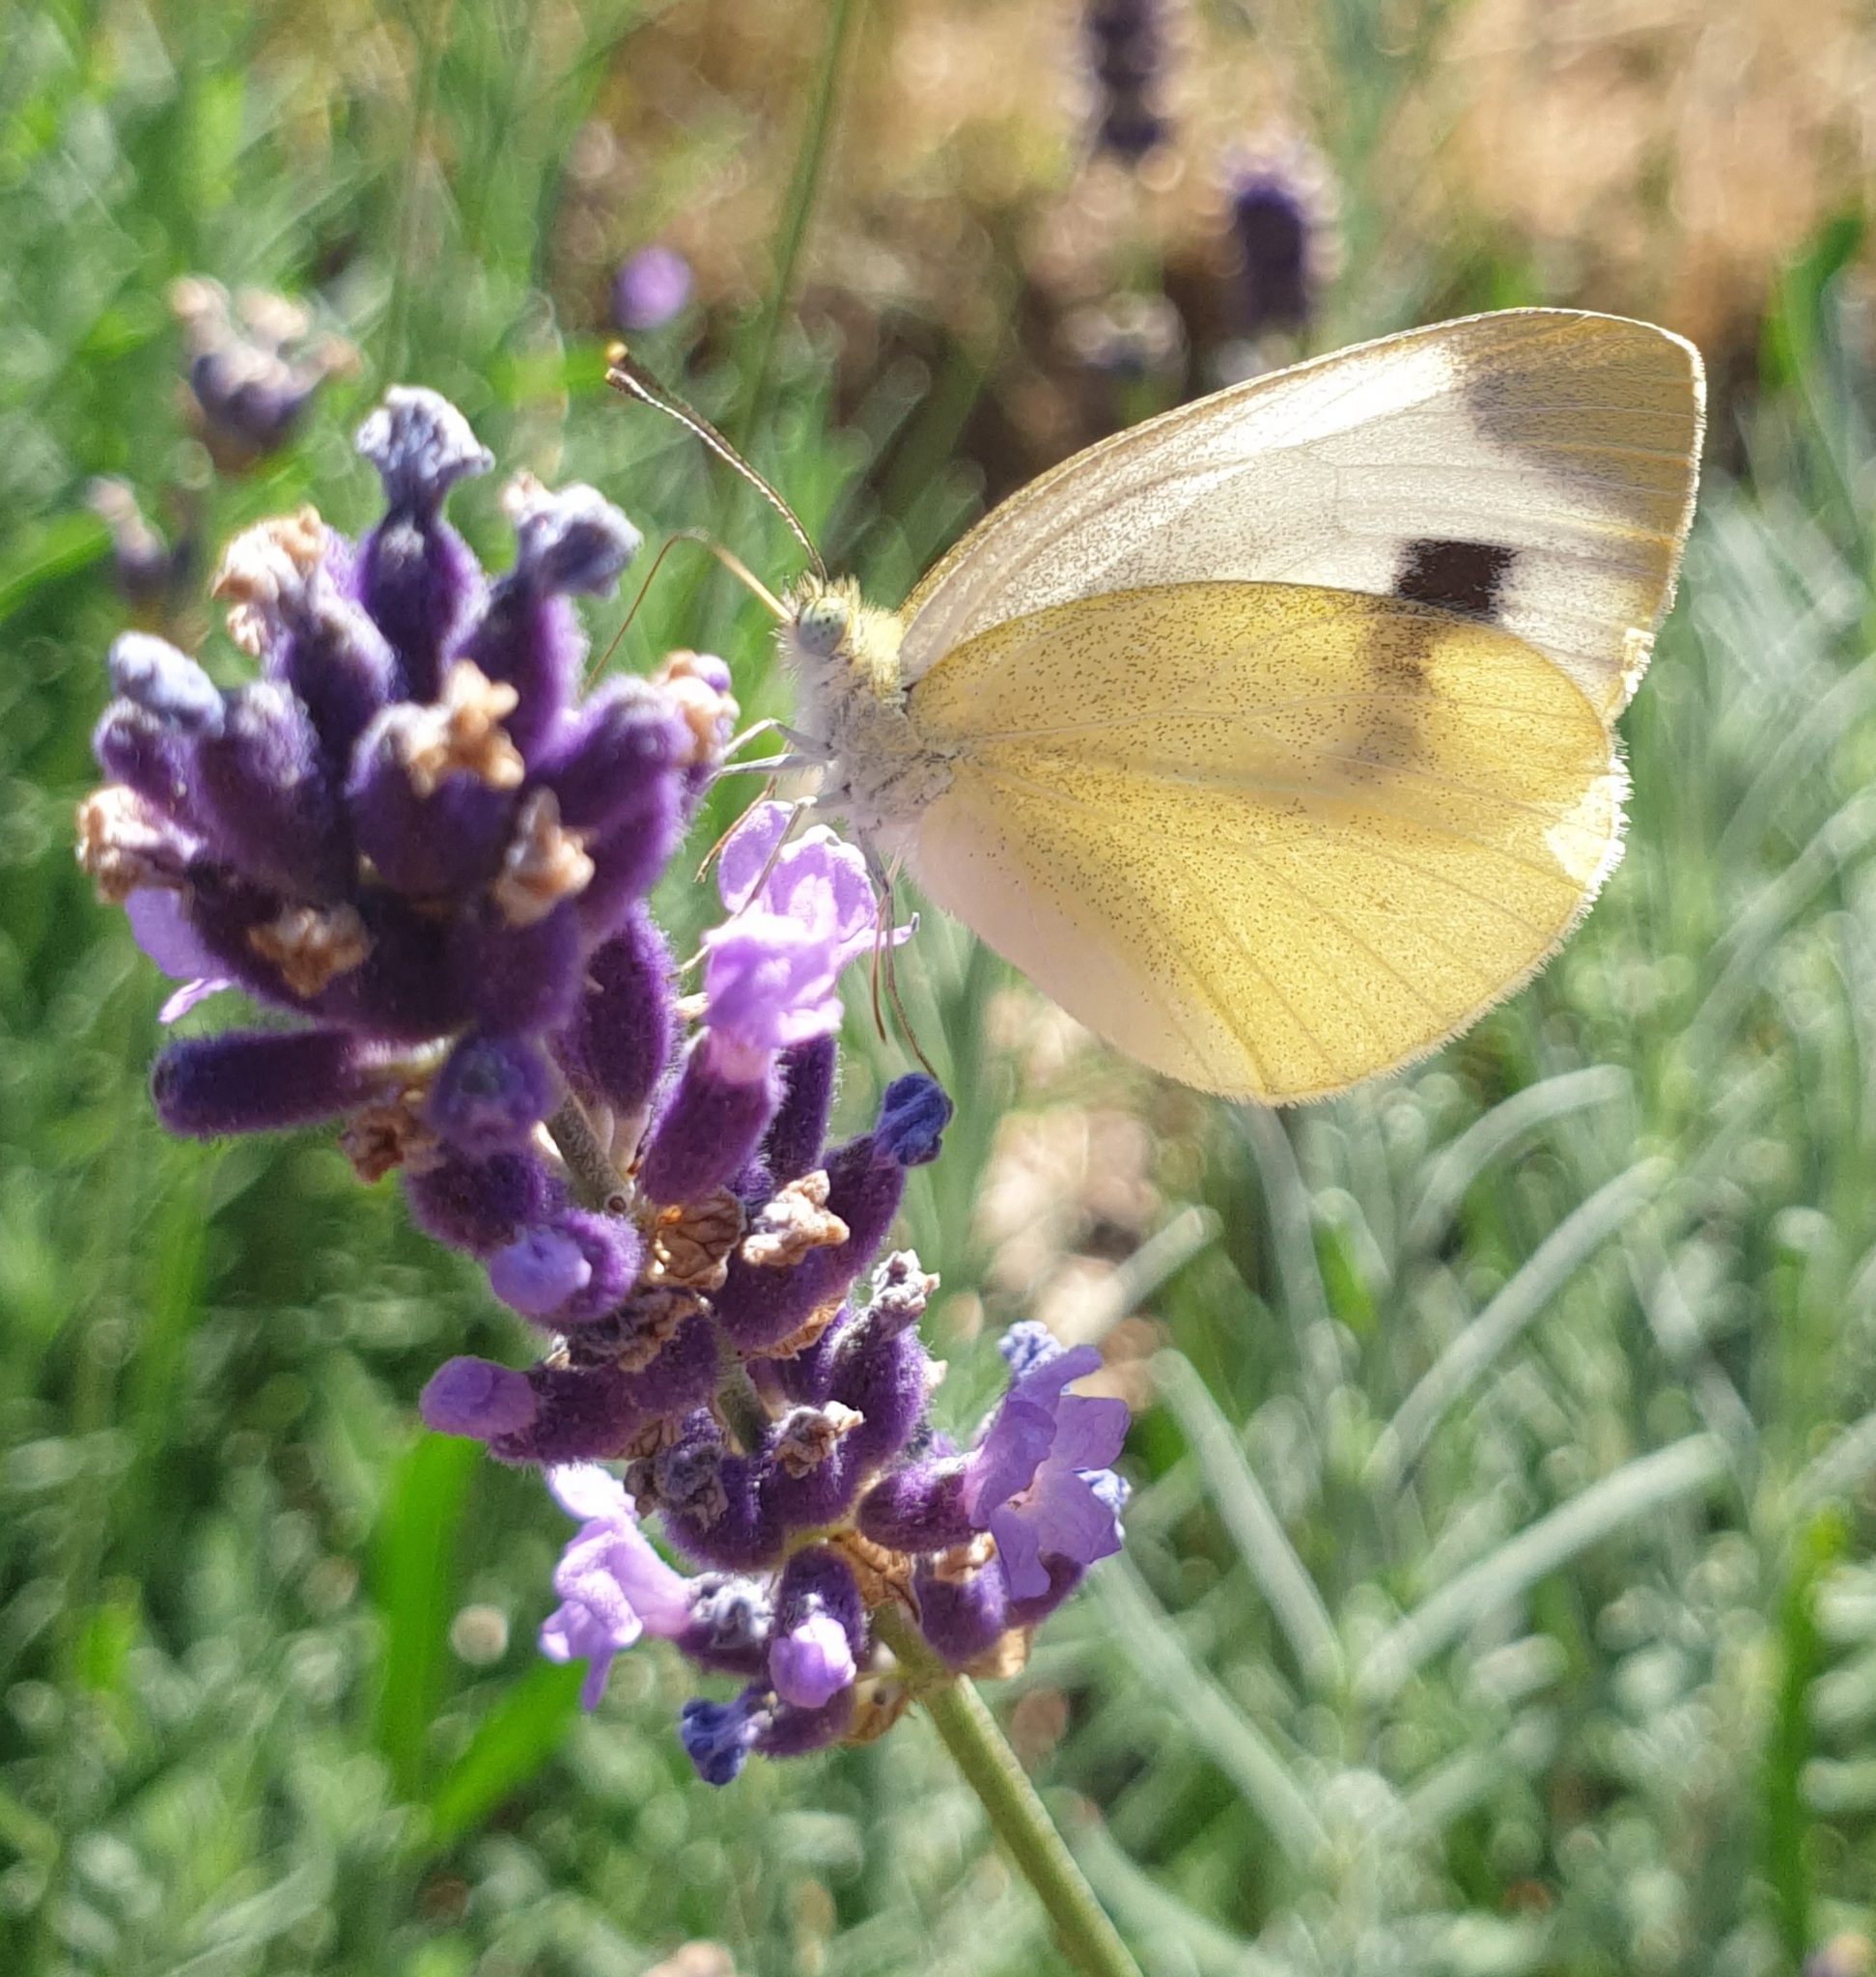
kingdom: Animalia
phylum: Arthropoda
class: Insecta
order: Lepidoptera
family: Pieridae
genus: Pieris
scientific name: Pieris mannii
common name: Southern small white
